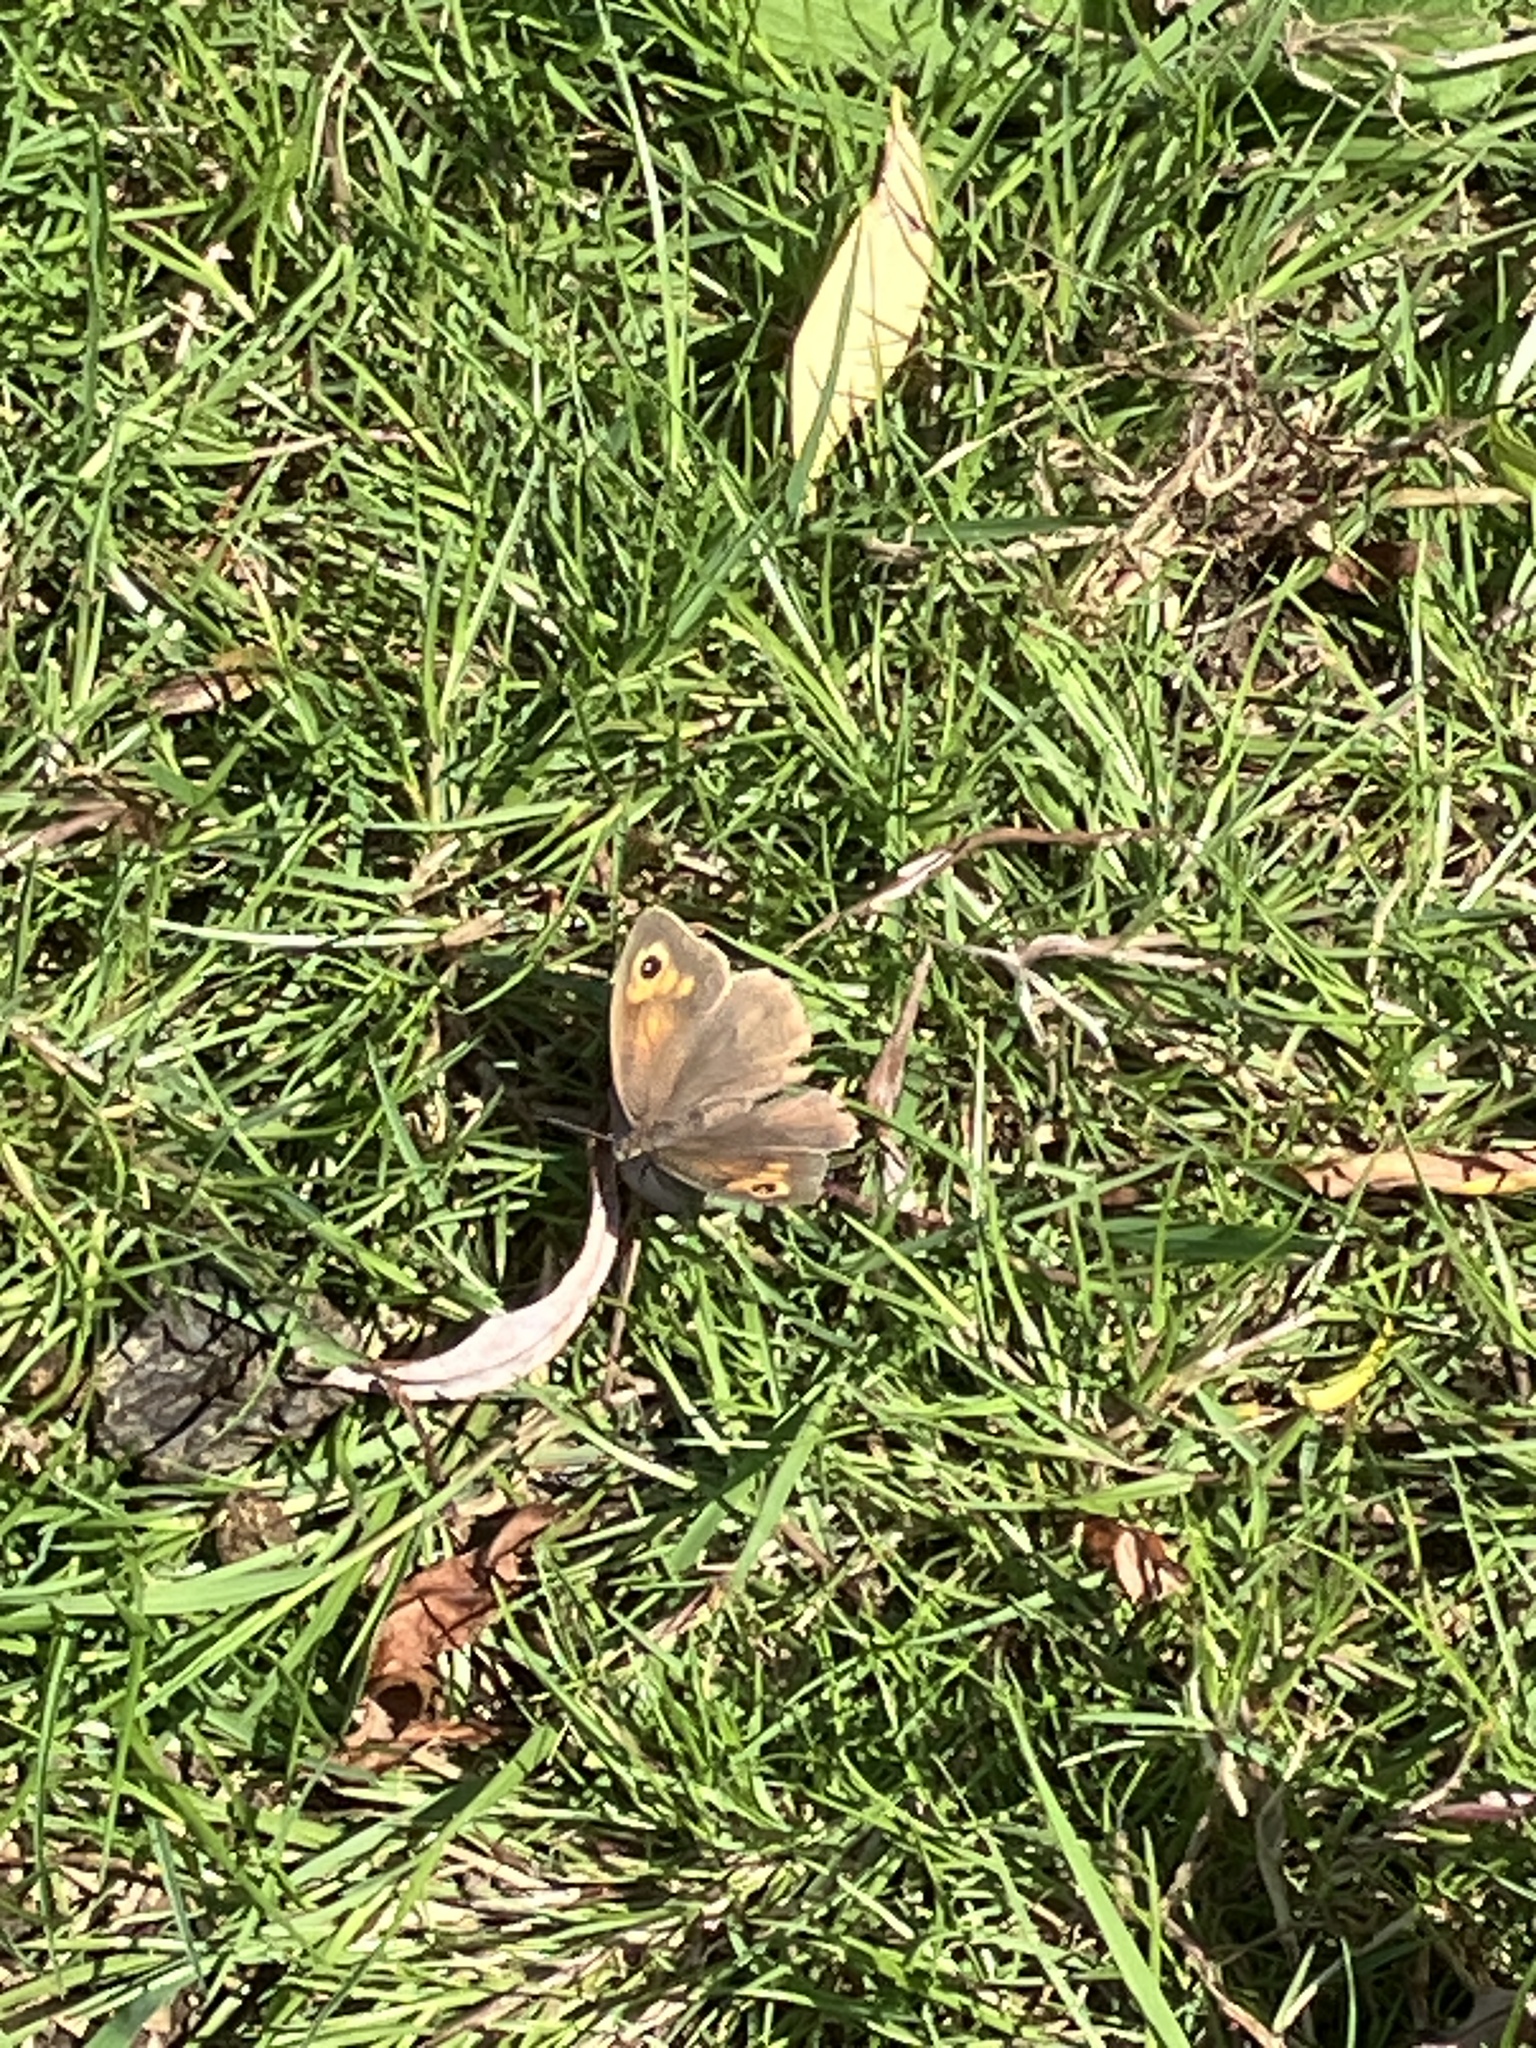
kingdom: Animalia
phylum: Arthropoda
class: Insecta
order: Lepidoptera
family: Nymphalidae
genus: Maniola
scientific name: Maniola jurtina
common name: Meadow brown
